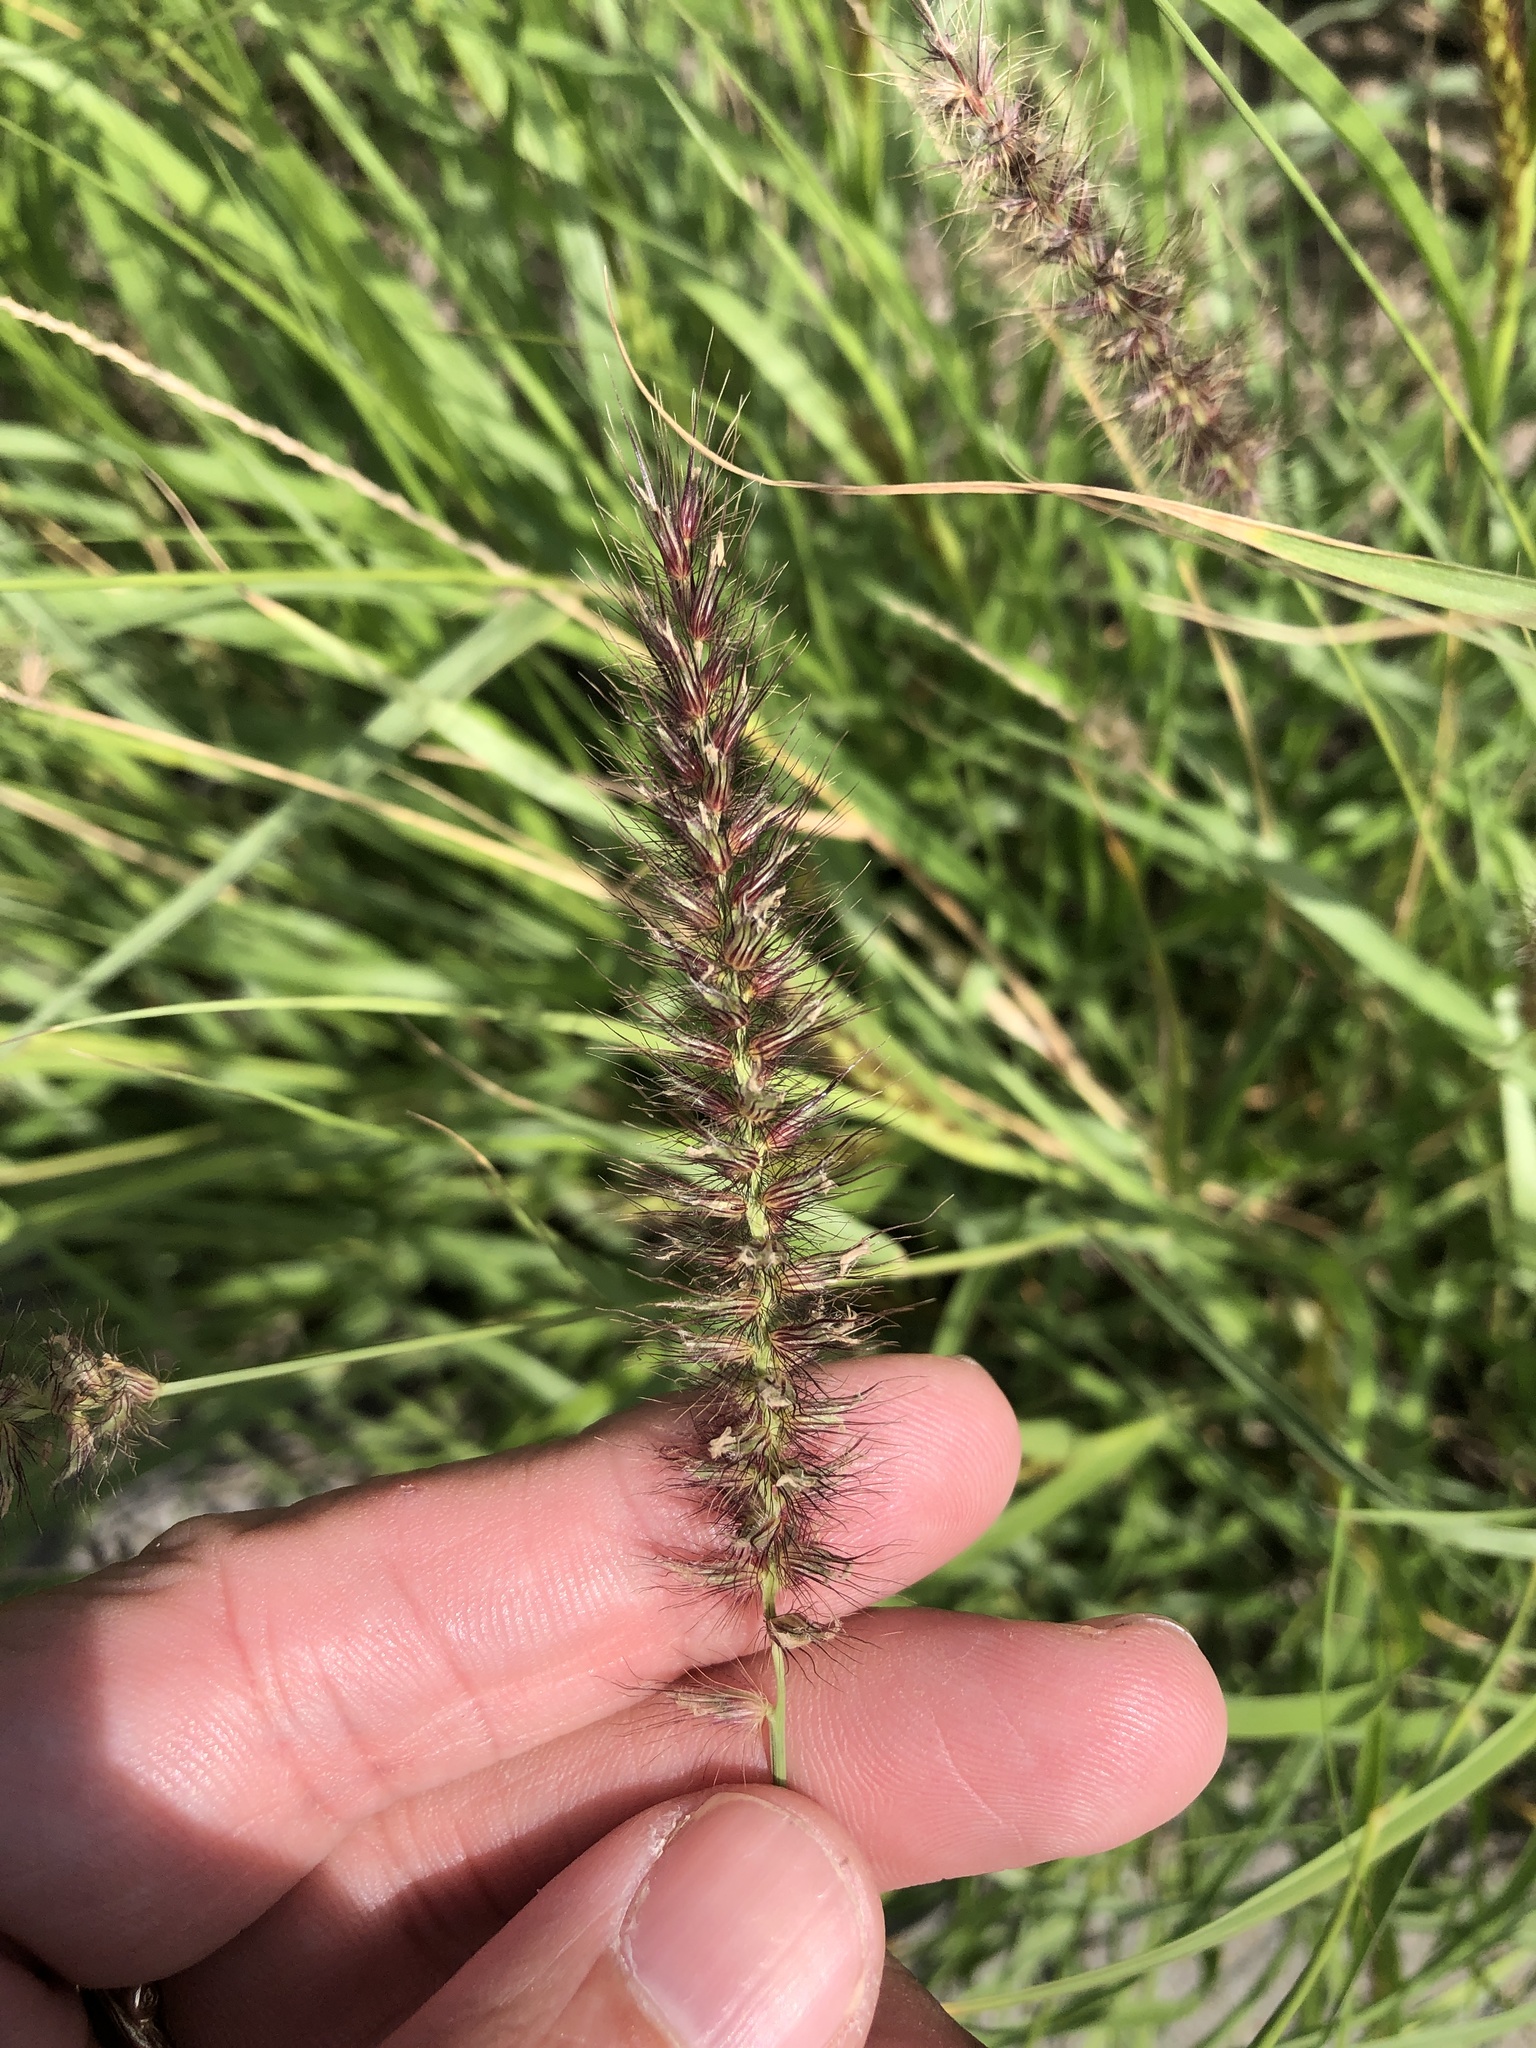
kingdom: Plantae
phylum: Tracheophyta
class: Liliopsida
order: Poales
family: Poaceae
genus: Cenchrus
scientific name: Cenchrus ciliaris
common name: Buffelgrass
